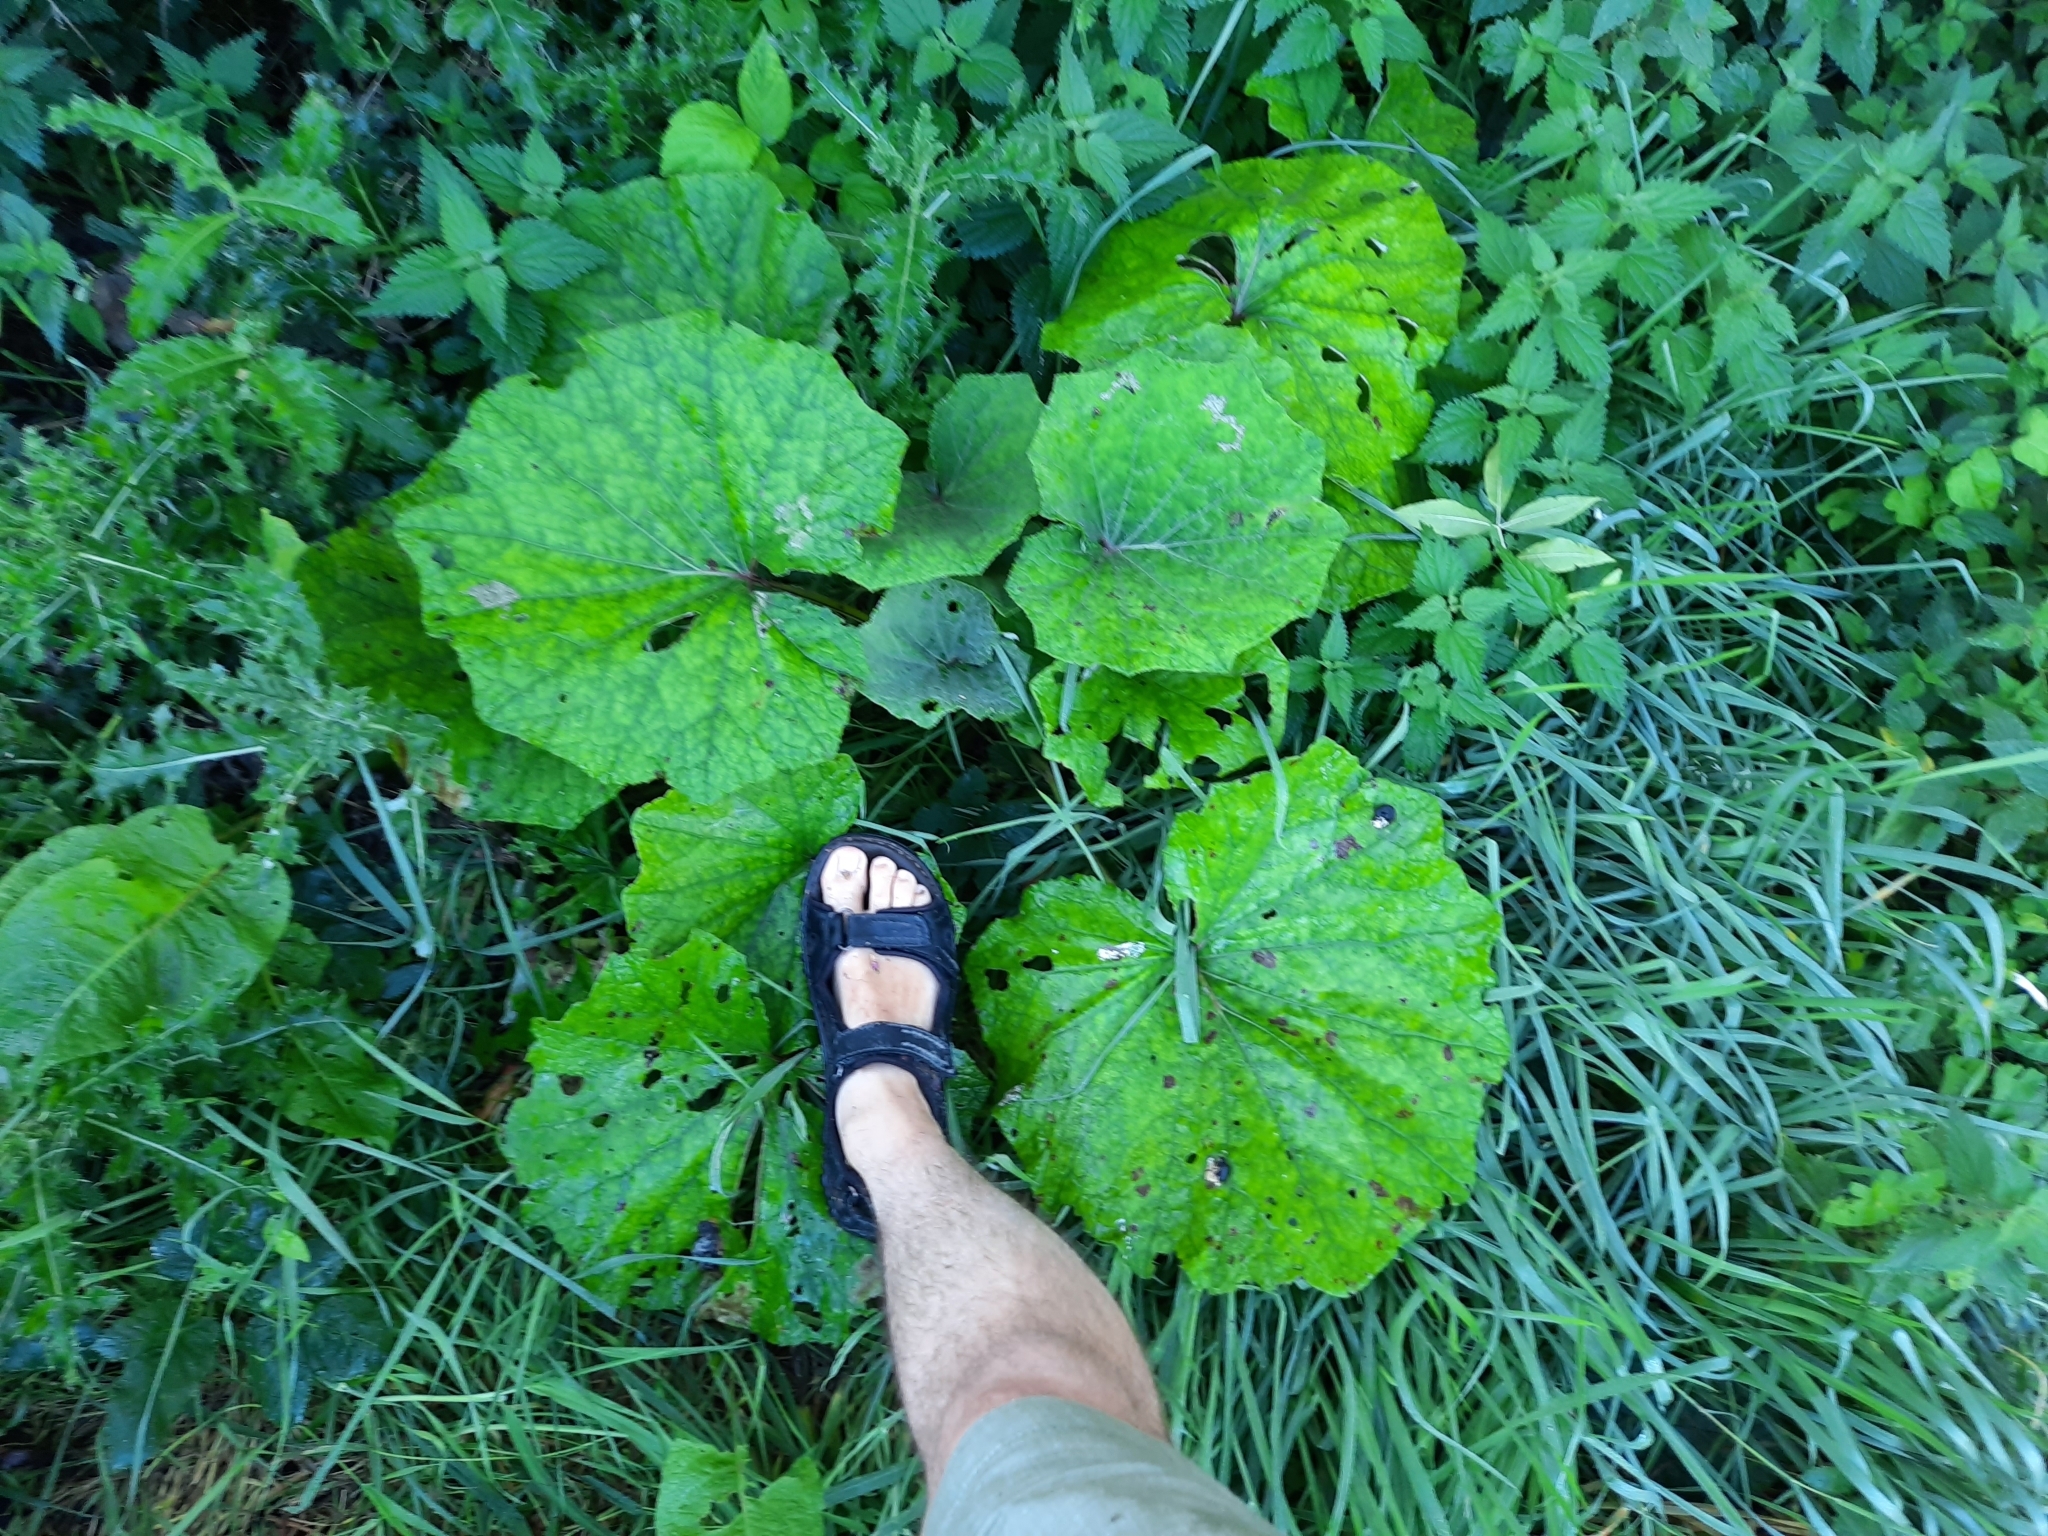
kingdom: Plantae
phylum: Tracheophyta
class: Magnoliopsida
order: Asterales
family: Asteraceae
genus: Tussilago
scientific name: Tussilago farfara
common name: Coltsfoot
